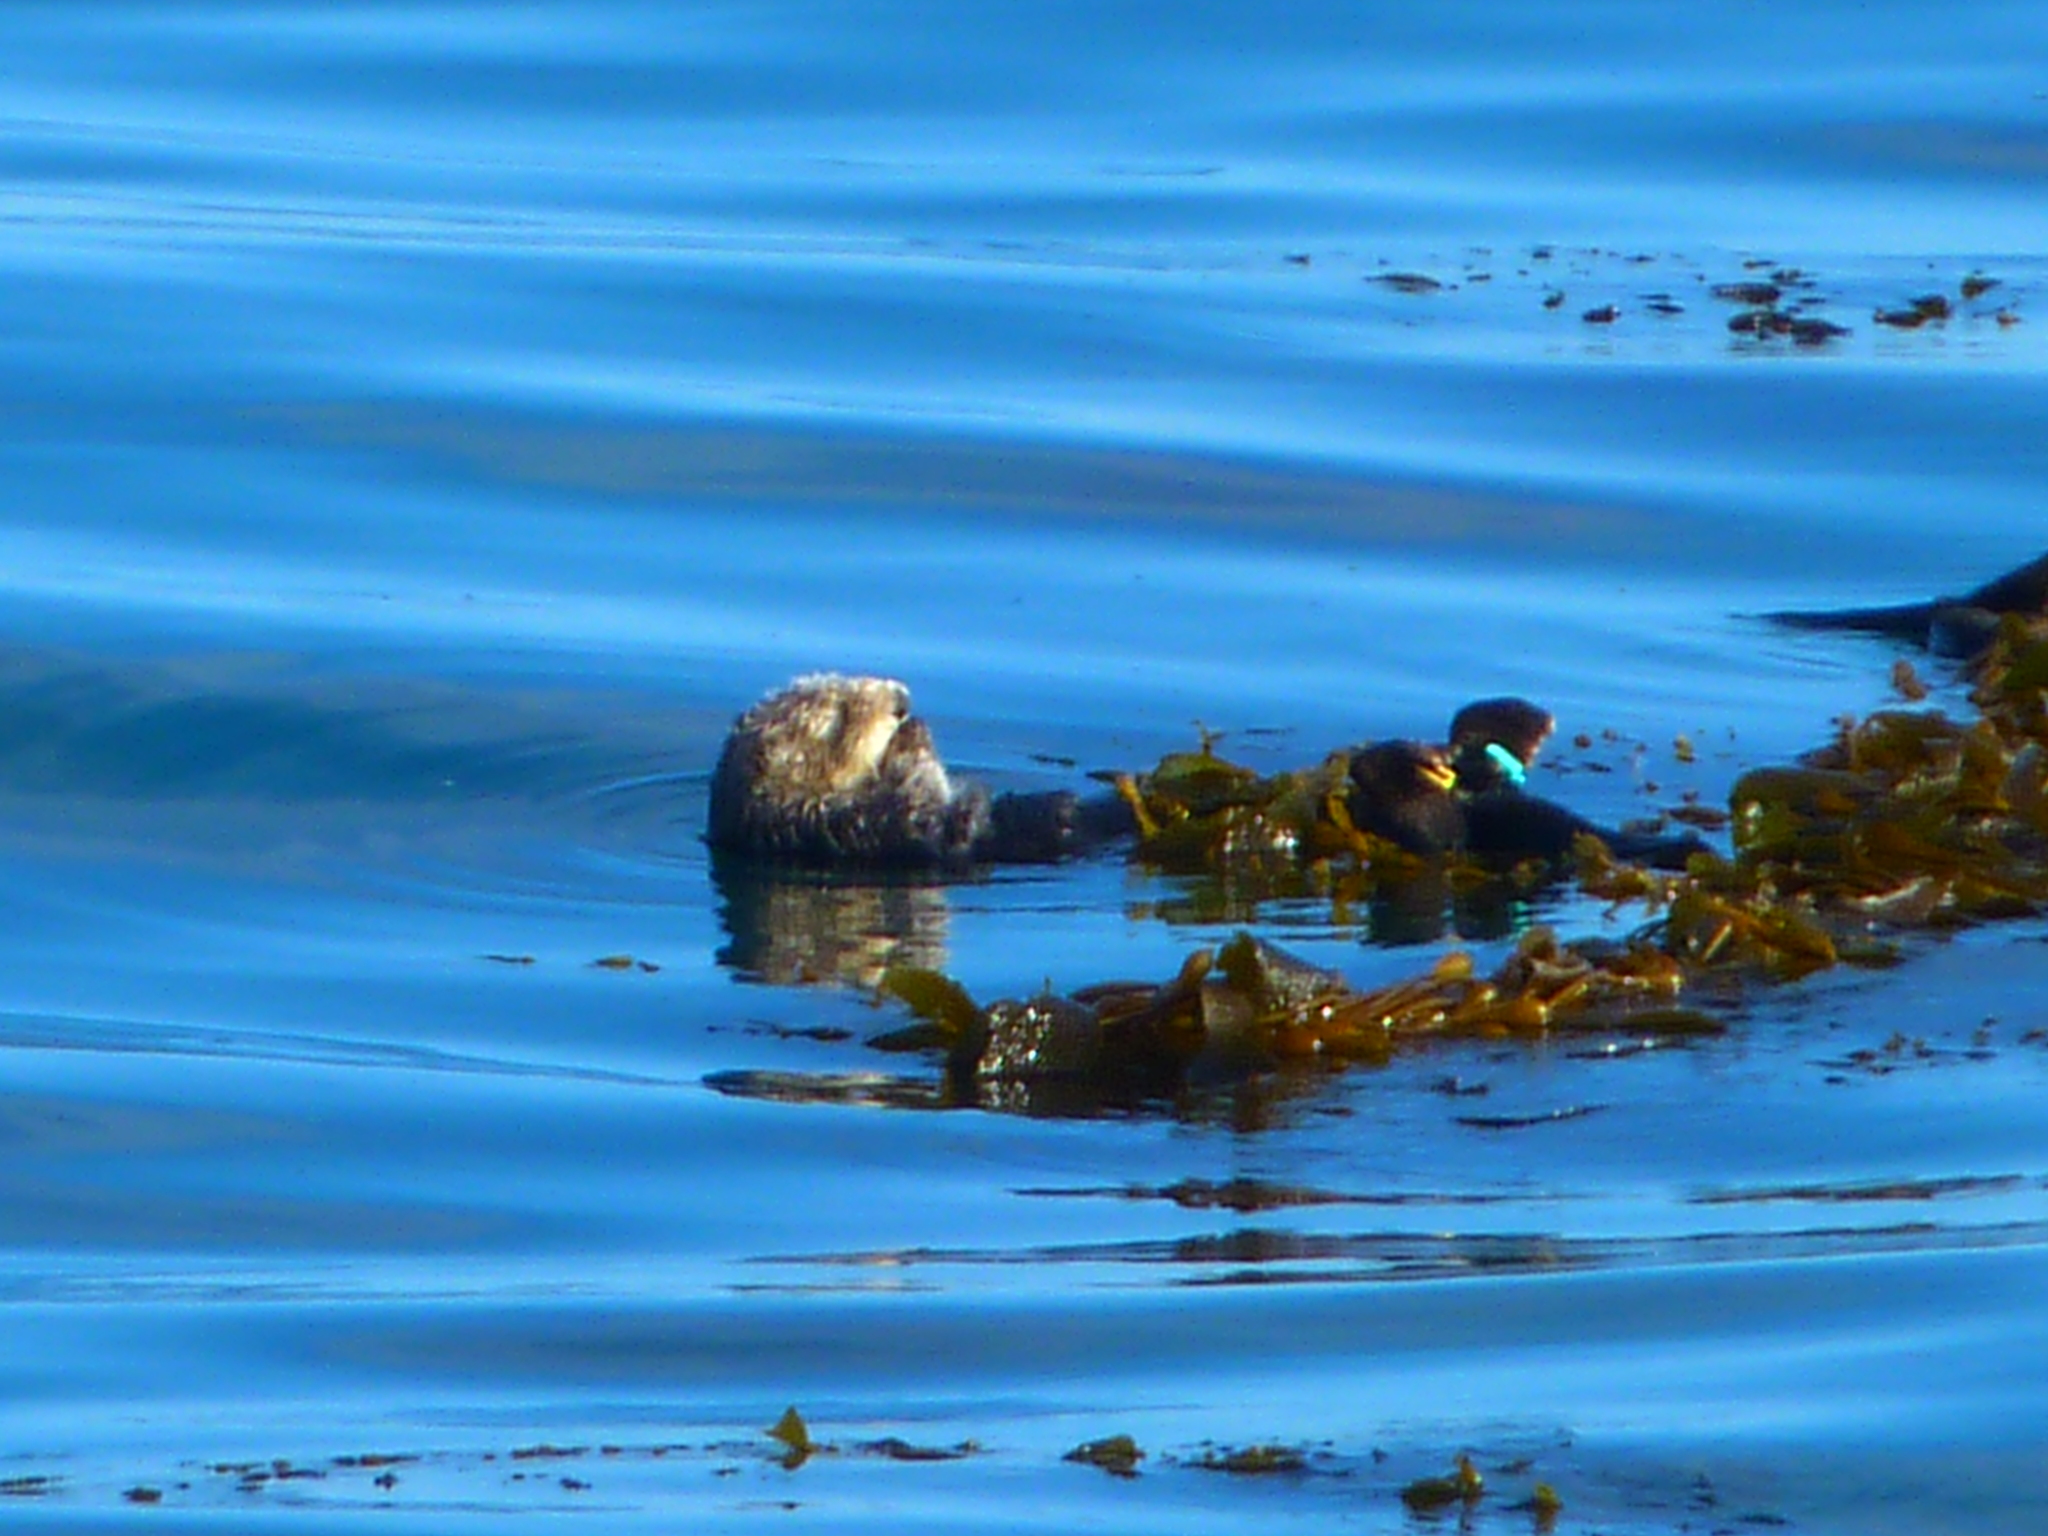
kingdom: Animalia
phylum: Chordata
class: Mammalia
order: Carnivora
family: Mustelidae
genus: Enhydra
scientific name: Enhydra lutris
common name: Sea otter
